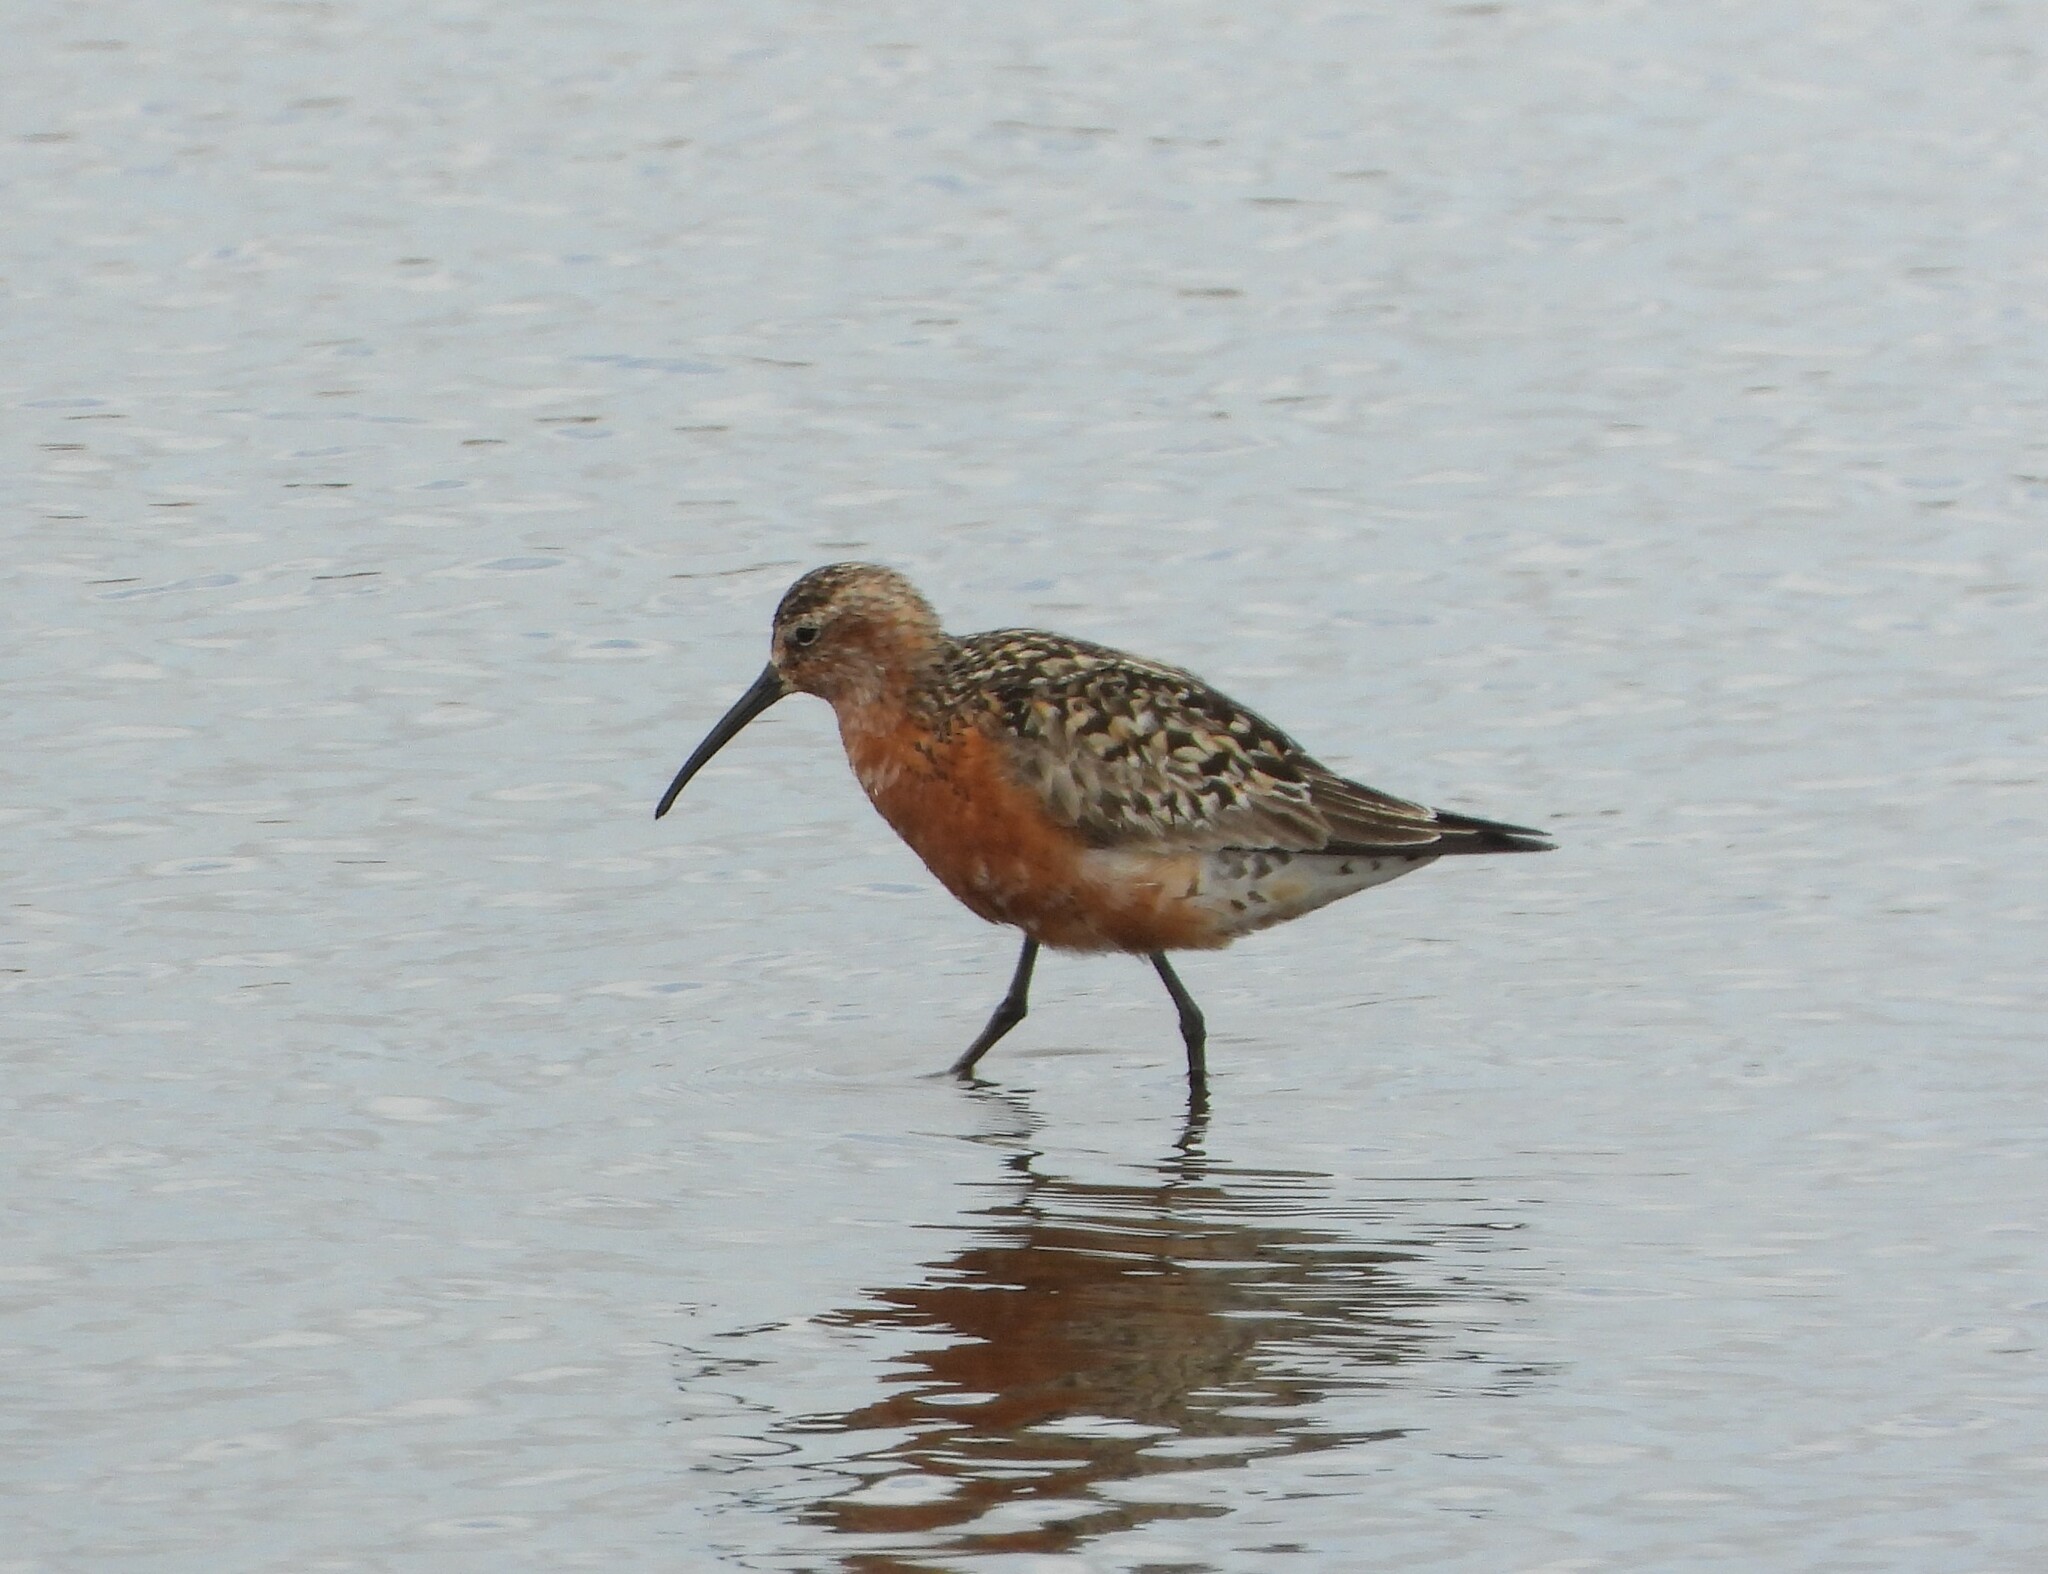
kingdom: Animalia
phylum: Chordata
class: Aves
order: Charadriiformes
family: Scolopacidae
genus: Calidris
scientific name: Calidris ferruginea
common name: Curlew sandpiper
